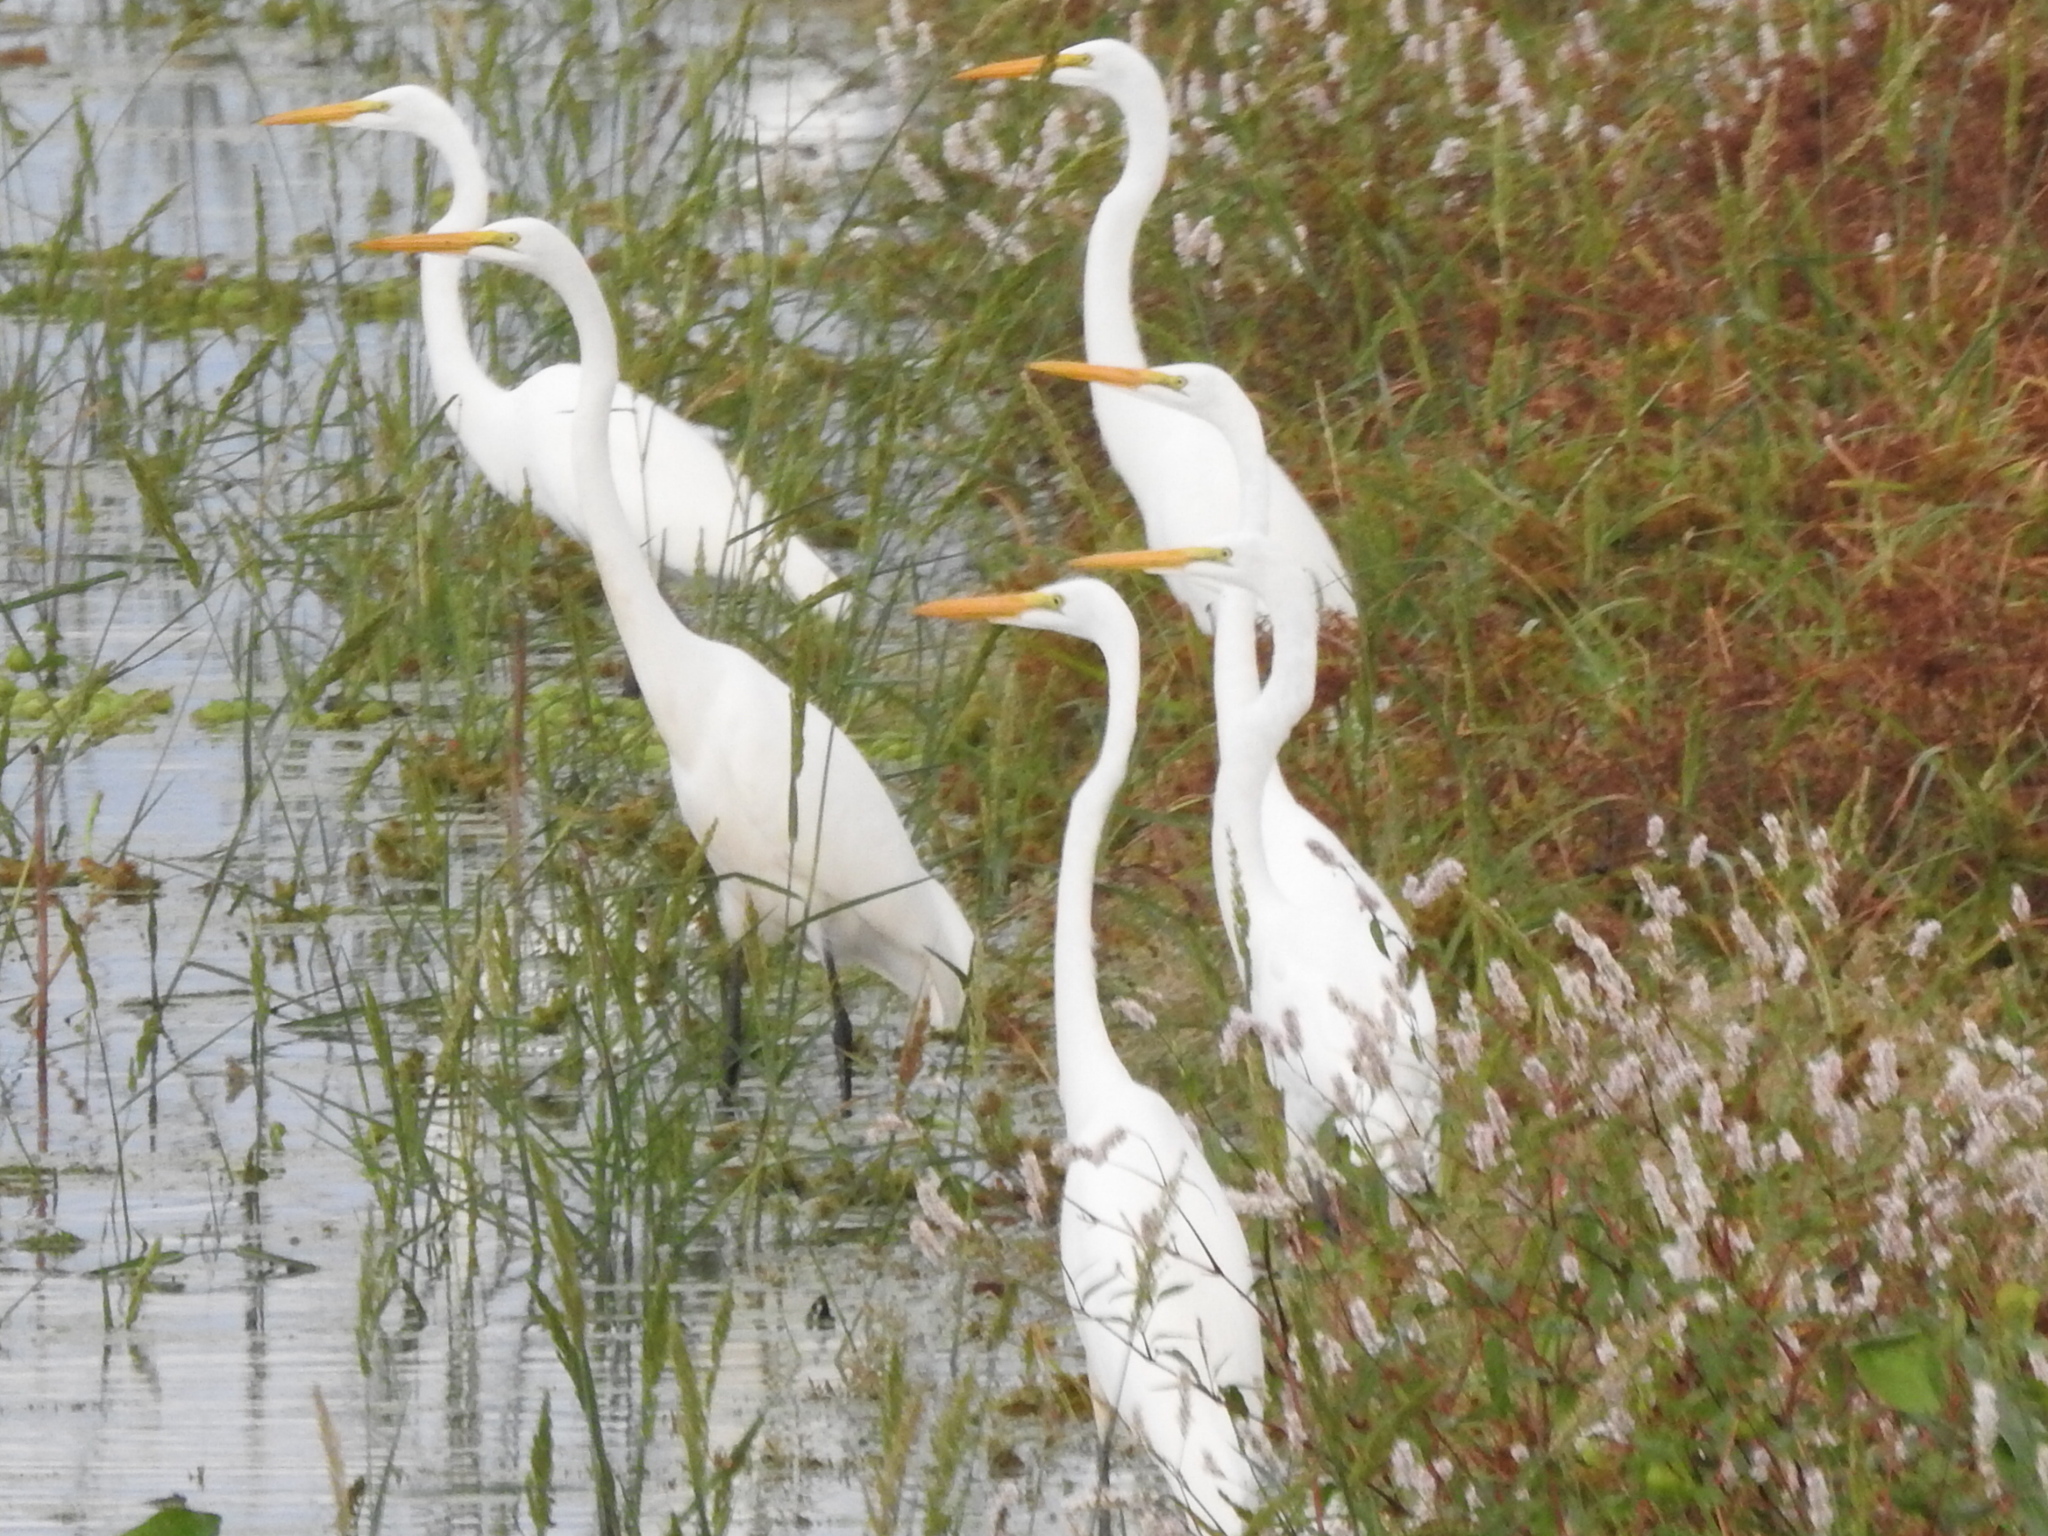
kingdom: Animalia
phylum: Chordata
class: Aves
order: Pelecaniformes
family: Ardeidae
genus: Ardea
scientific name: Ardea alba
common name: Great egret
